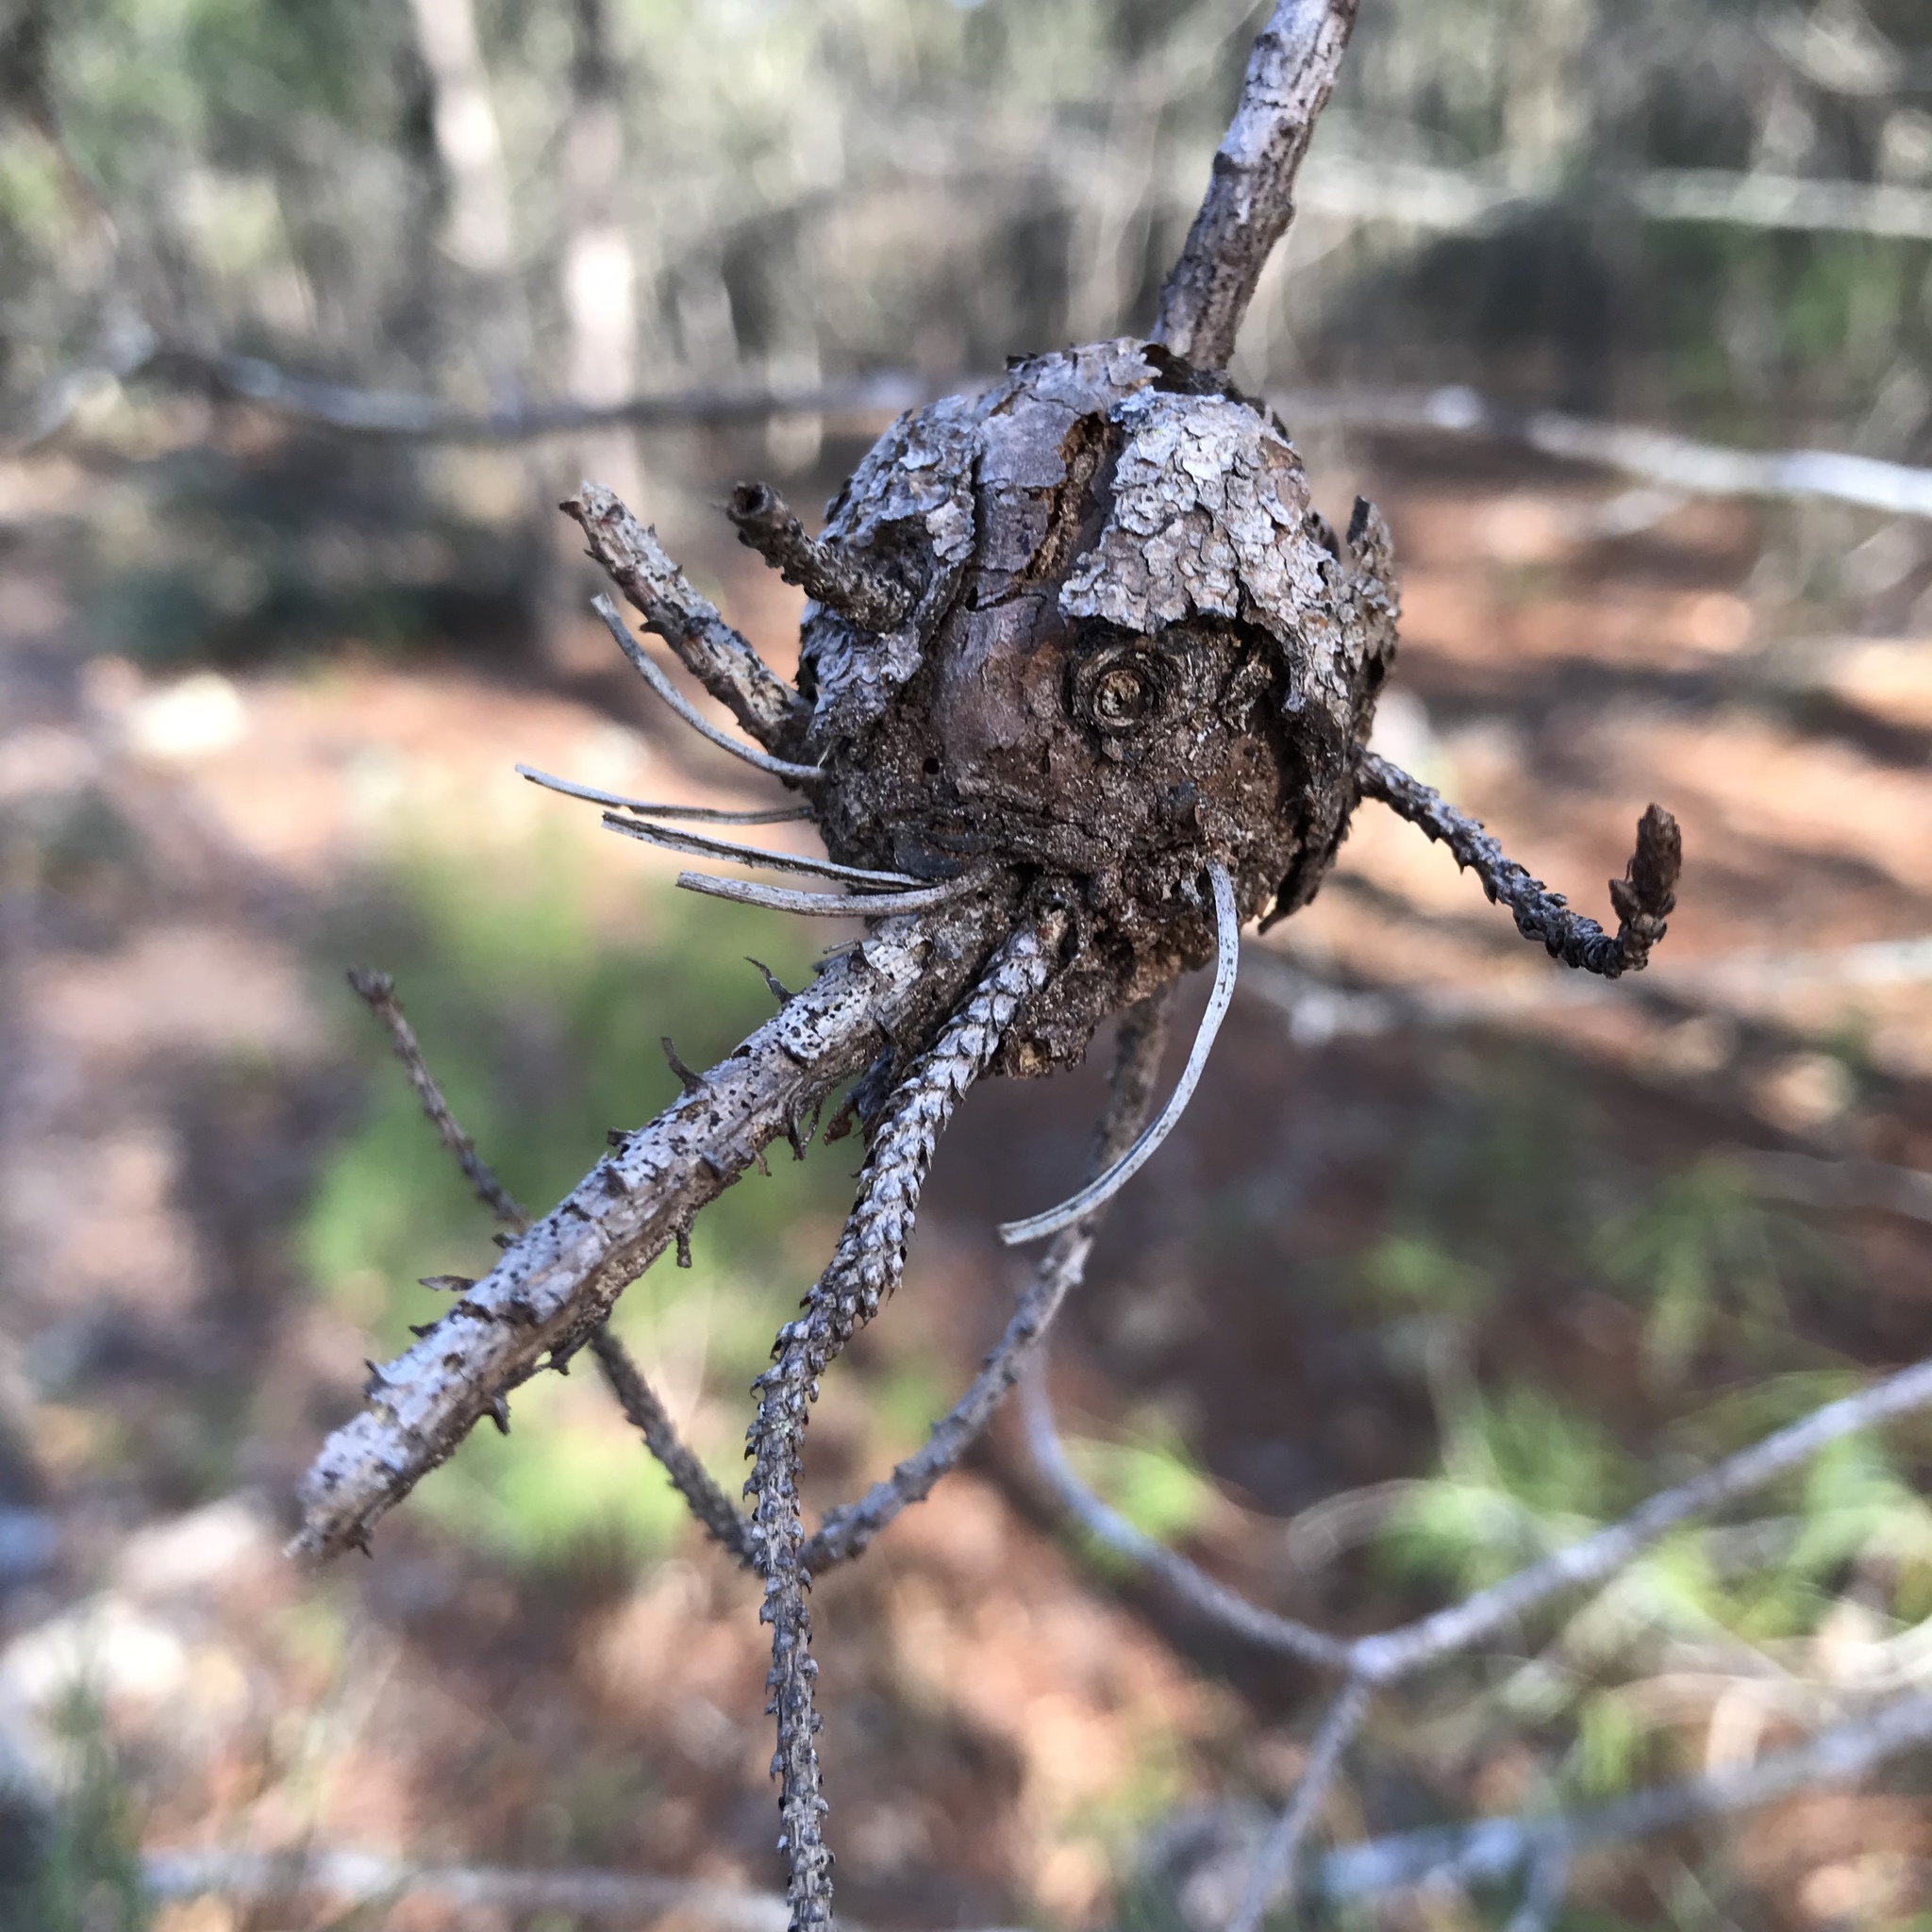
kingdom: Fungi
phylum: Basidiomycota
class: Pucciniomycetes
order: Pucciniales
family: Cronartiaceae
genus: Cronartium
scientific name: Cronartium quercuum
